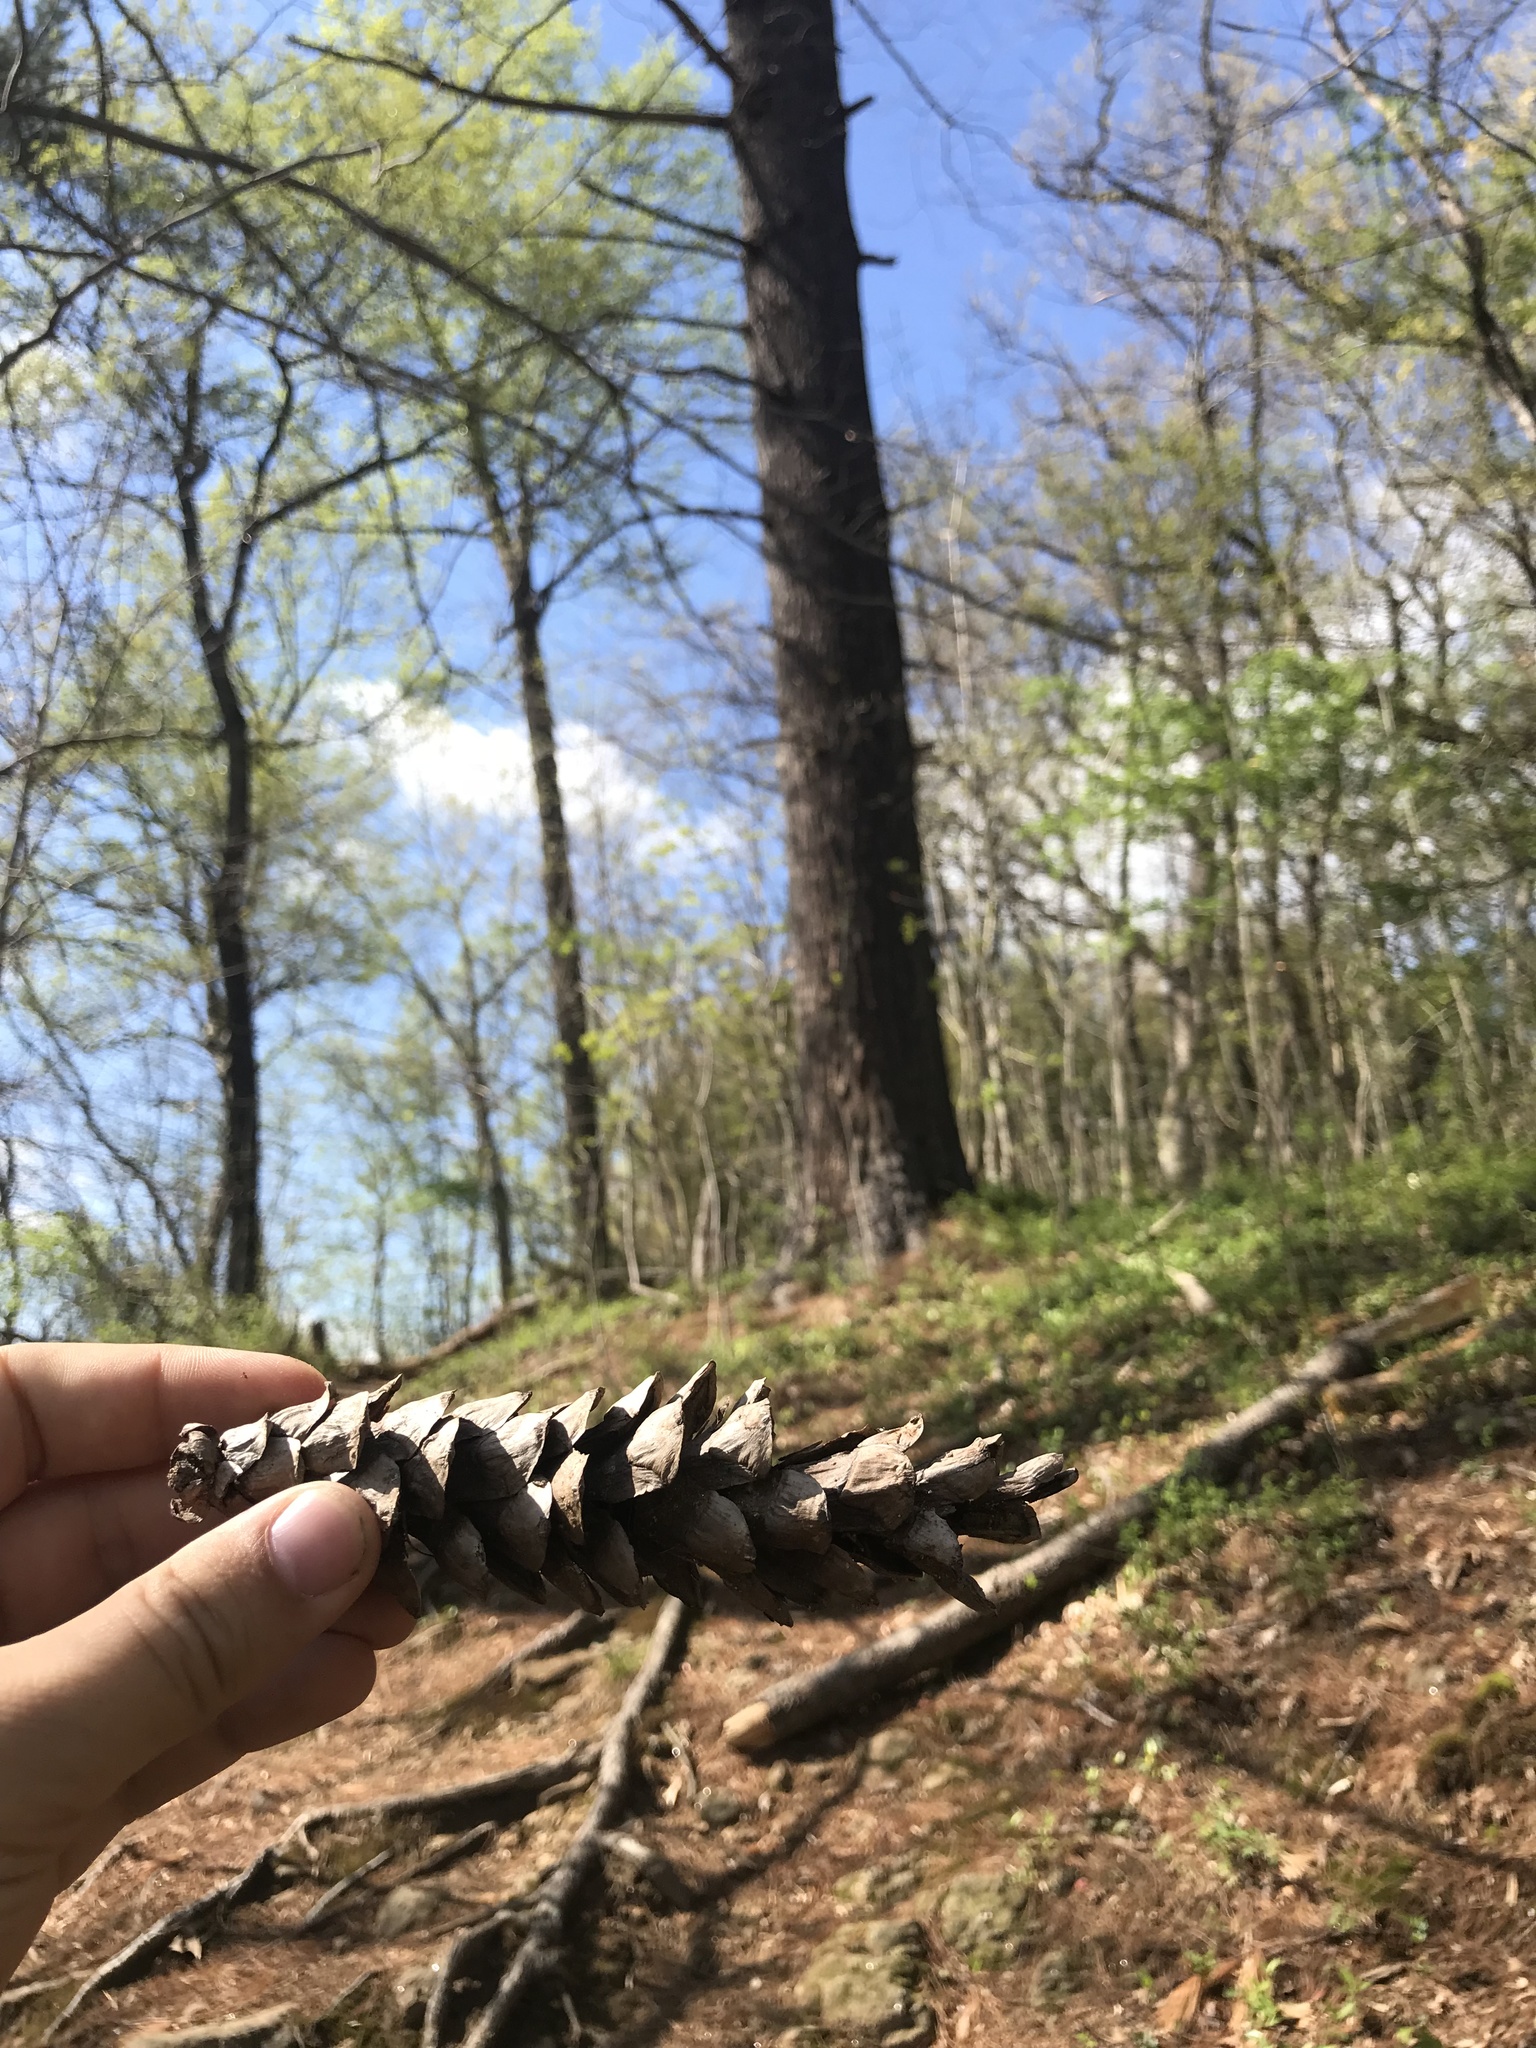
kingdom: Plantae
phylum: Tracheophyta
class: Pinopsida
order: Pinales
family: Pinaceae
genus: Pinus
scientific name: Pinus strobus
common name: Weymouth pine
